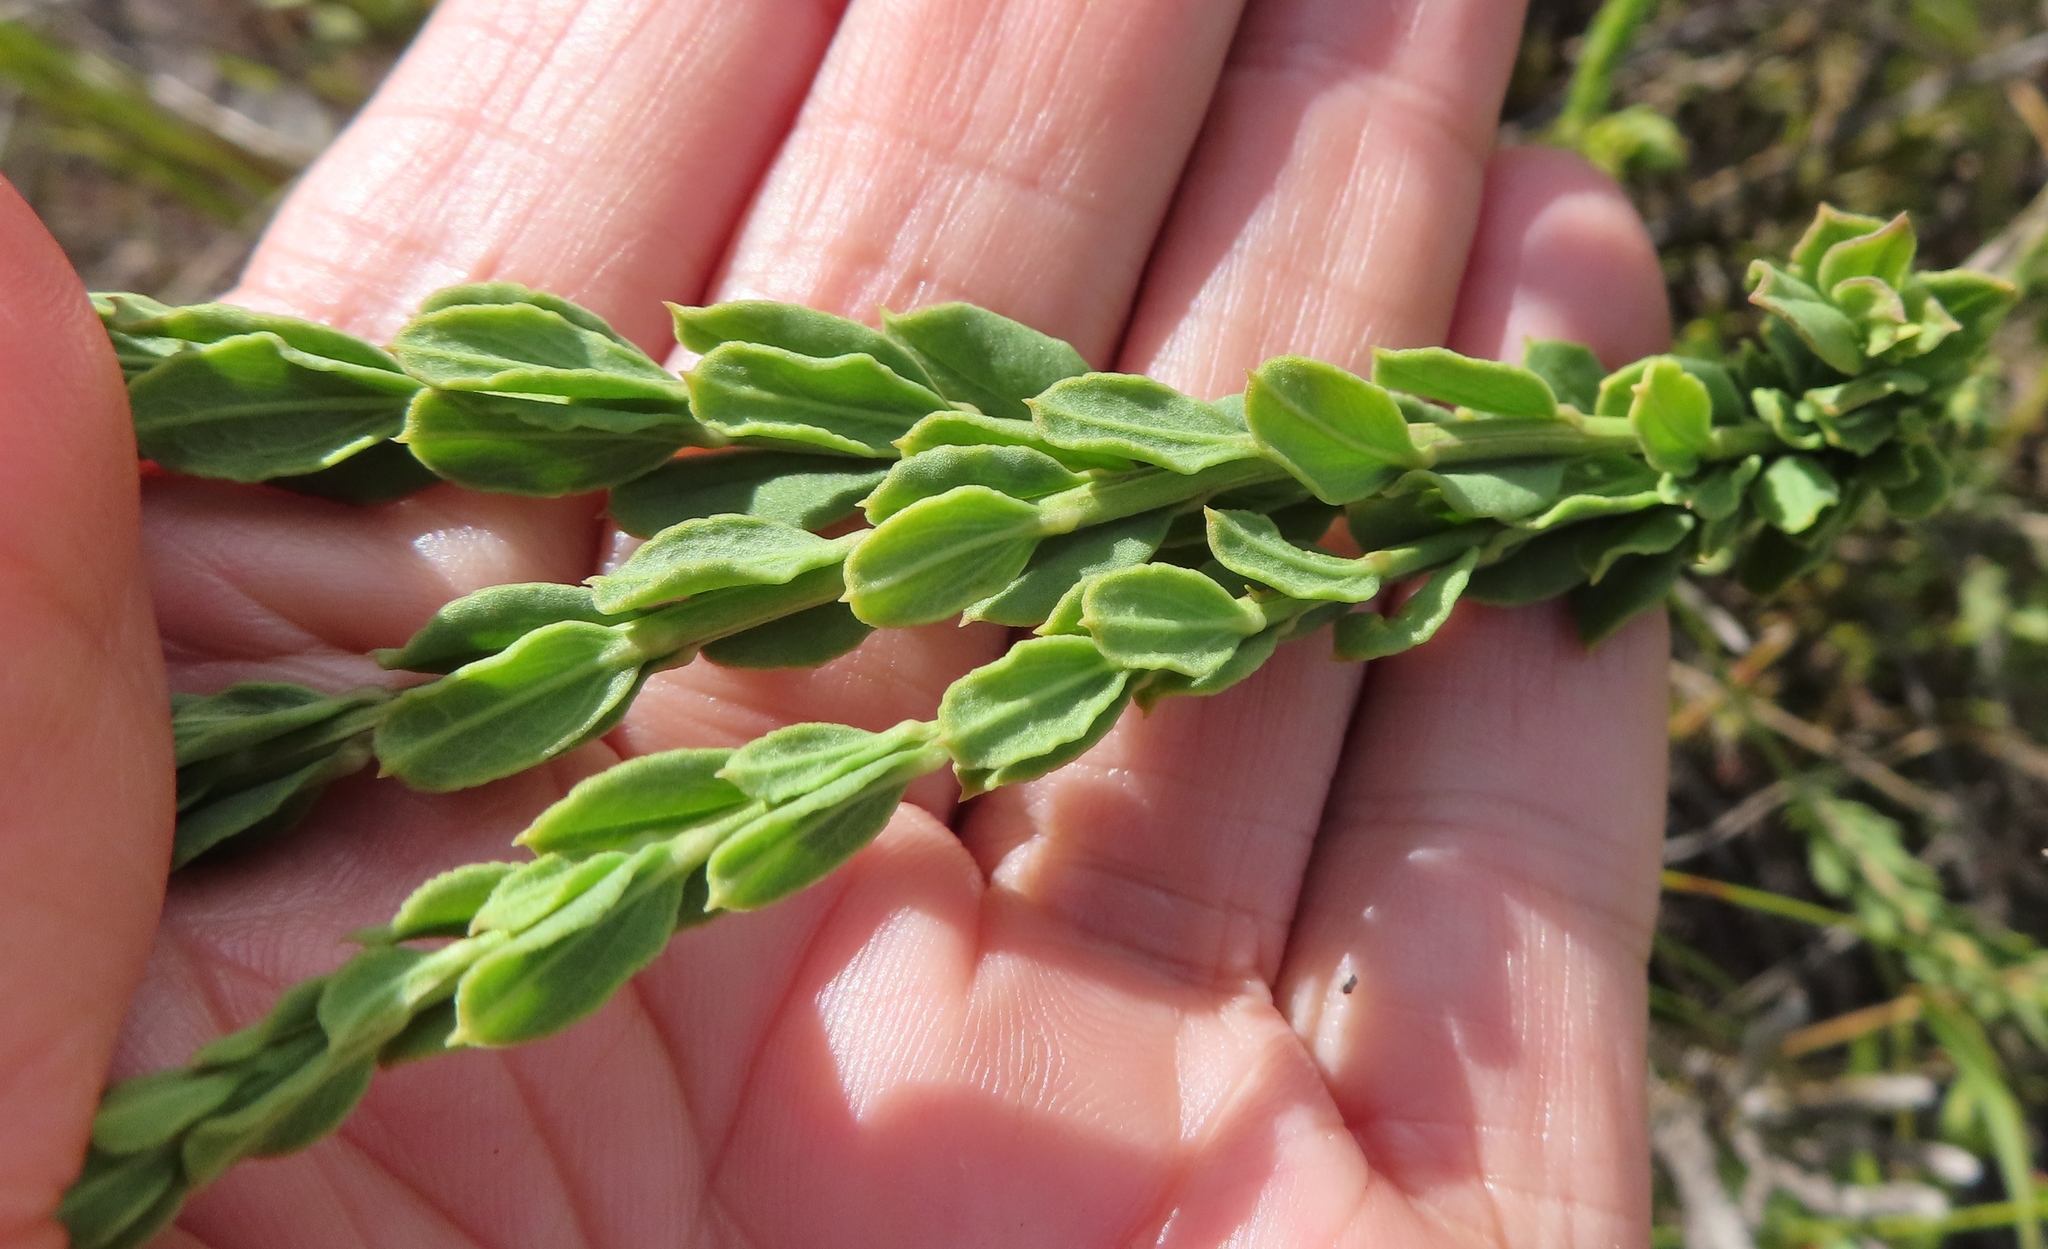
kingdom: Plantae
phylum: Tracheophyta
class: Magnoliopsida
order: Lamiales
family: Scrophulariaceae
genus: Freylinia
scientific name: Freylinia longiflora
